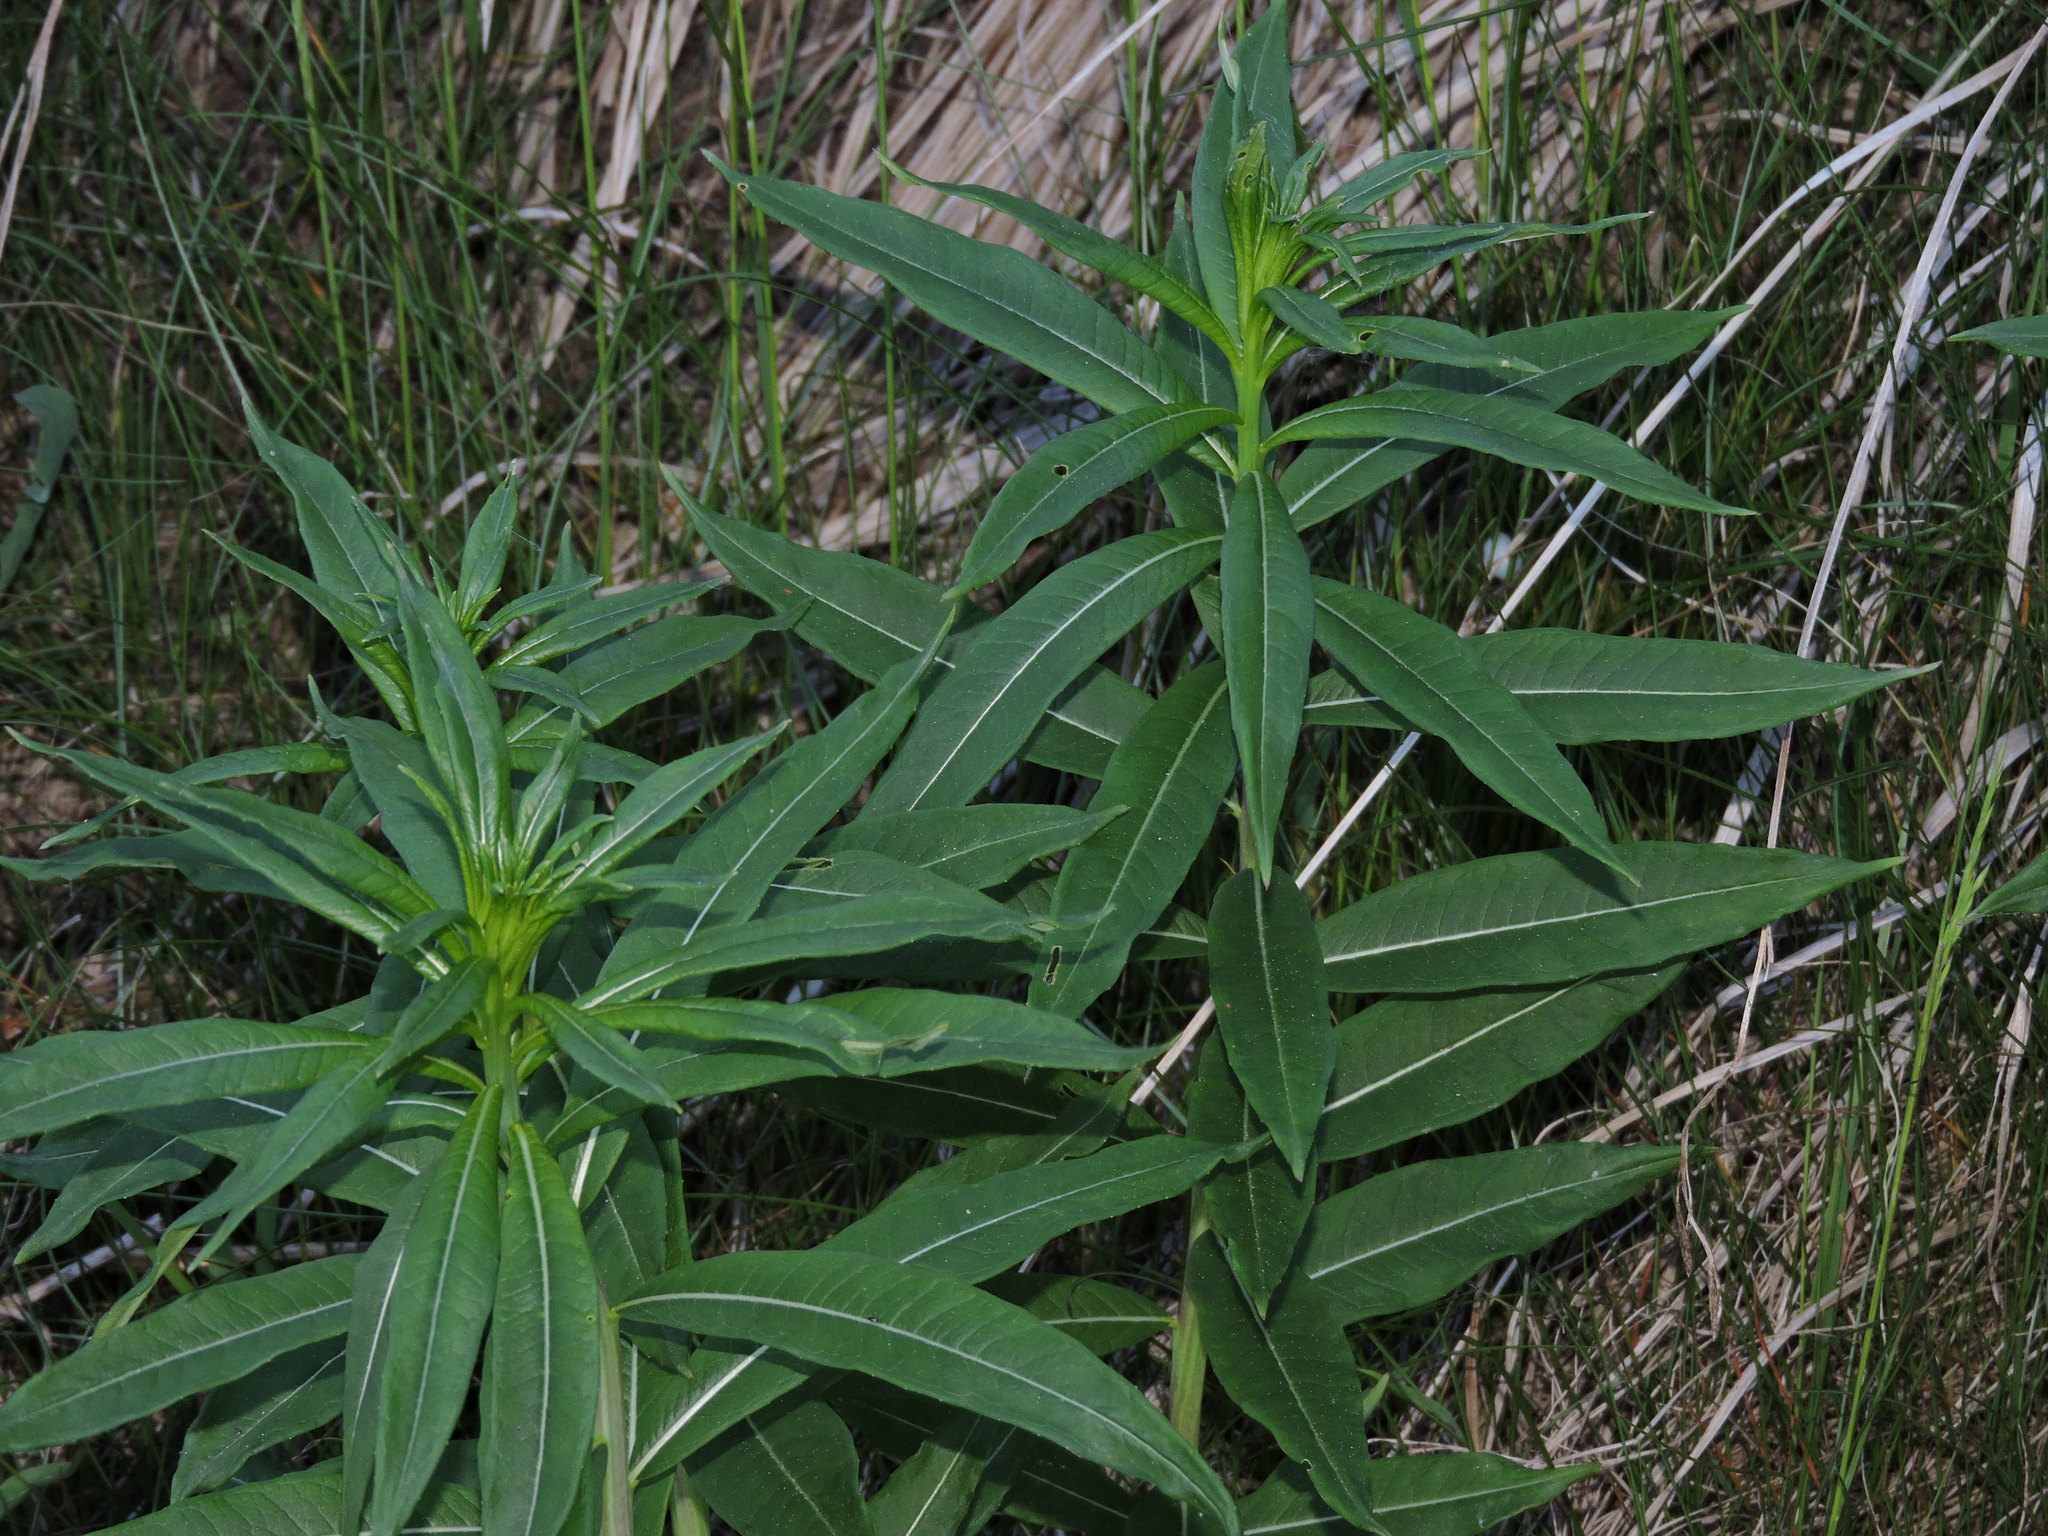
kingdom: Plantae
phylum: Tracheophyta
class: Magnoliopsida
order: Myrtales
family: Onagraceae
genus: Chamaenerion
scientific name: Chamaenerion angustifolium
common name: Fireweed
